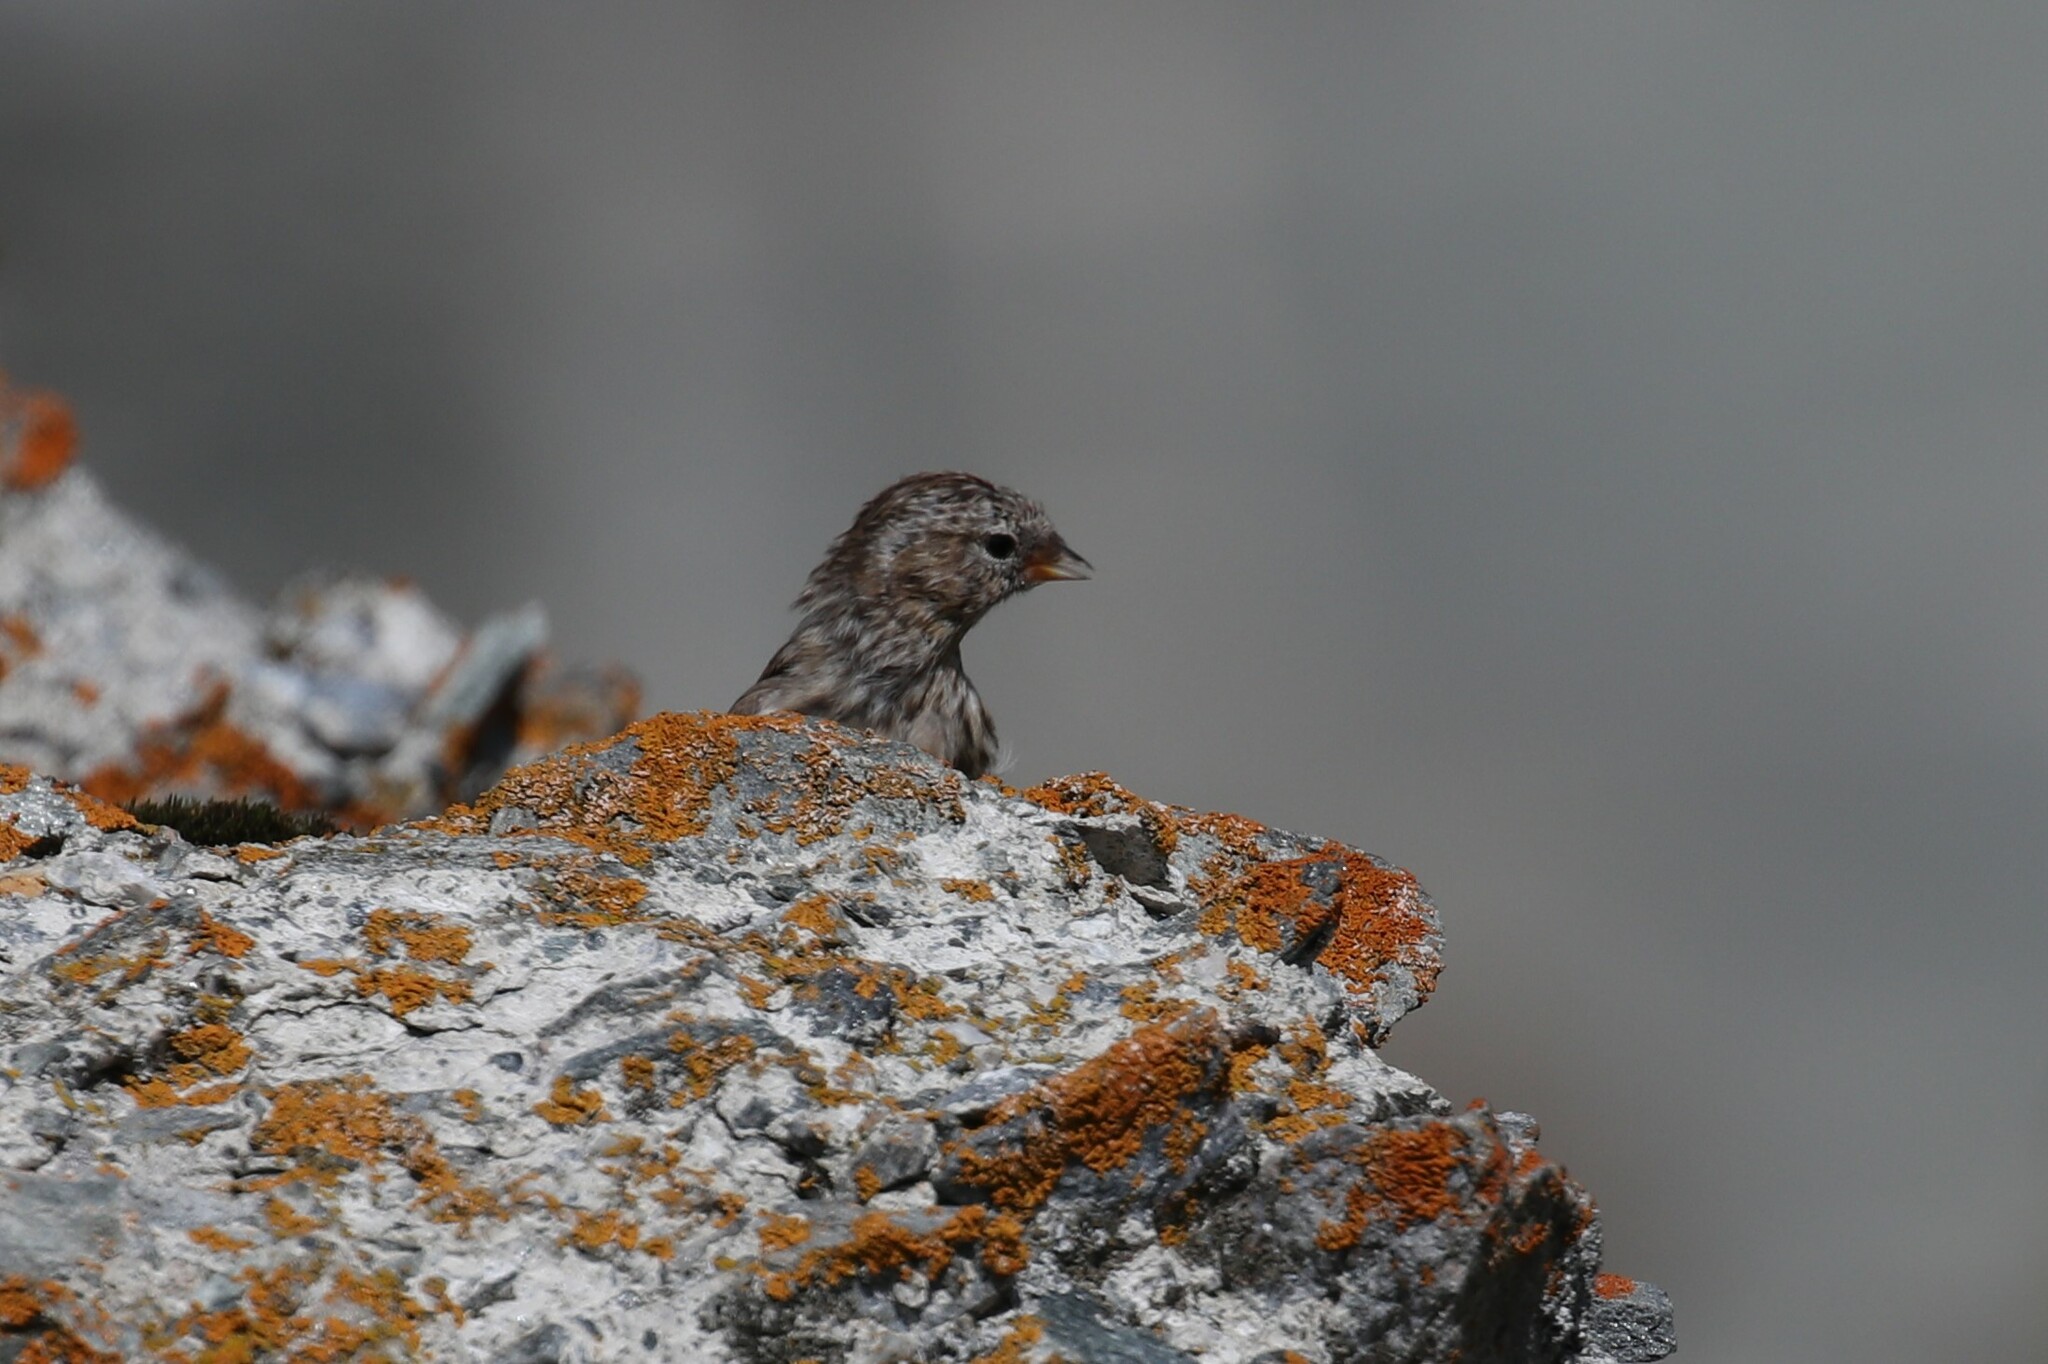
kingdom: Animalia
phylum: Chordata
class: Aves
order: Passeriformes
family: Fringillidae
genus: Acanthis
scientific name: Acanthis flammea
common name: Common redpoll
